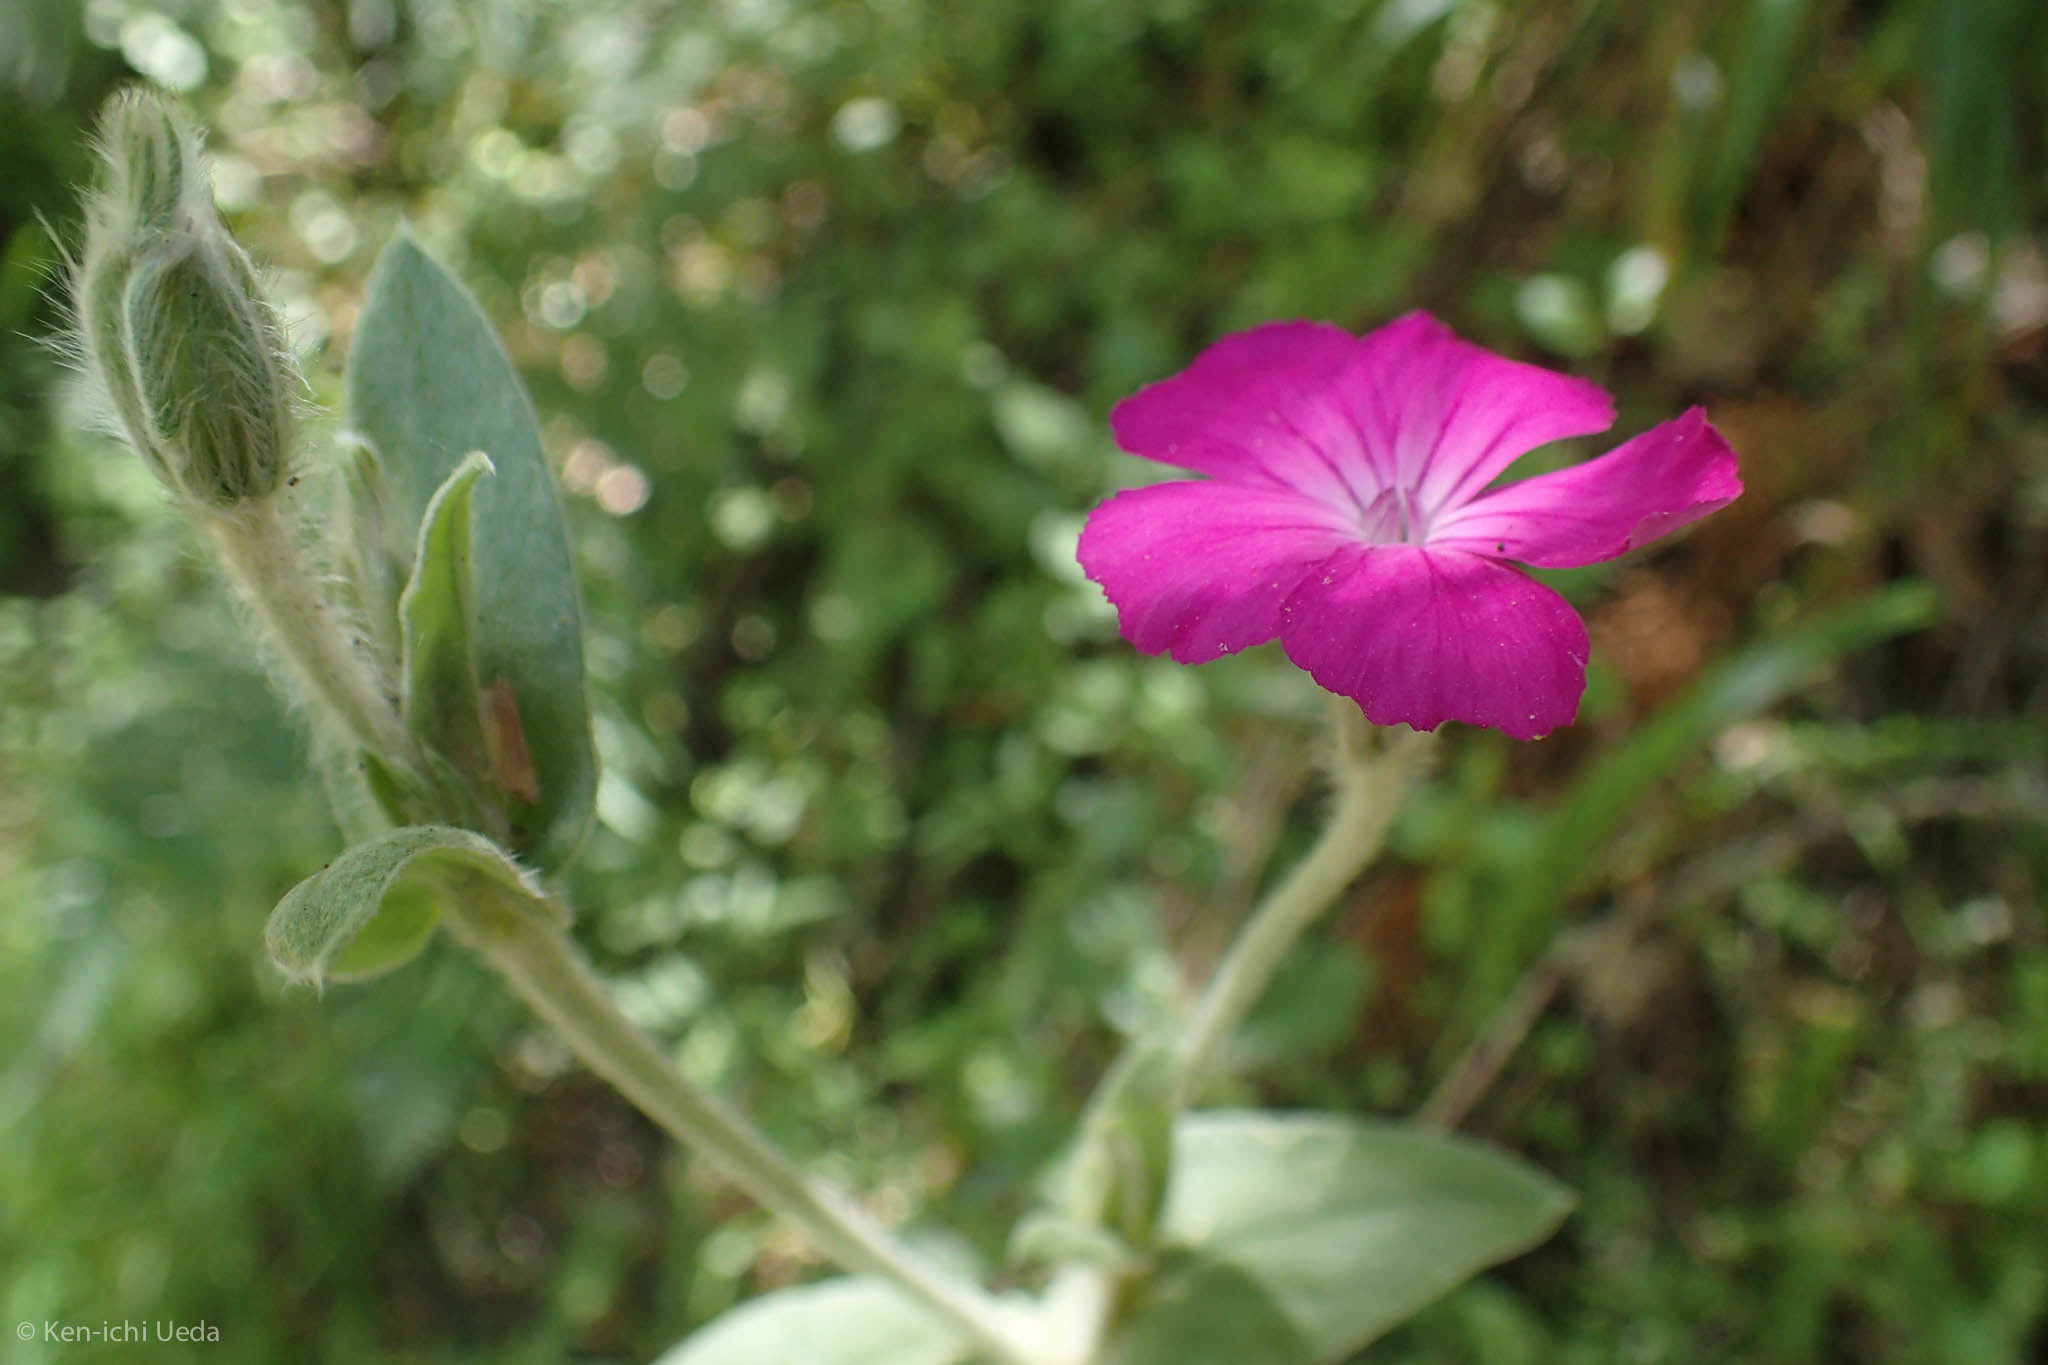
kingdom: Plantae
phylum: Tracheophyta
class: Magnoliopsida
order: Caryophyllales
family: Caryophyllaceae
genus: Silene
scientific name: Silene coronaria
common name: Rose campion
